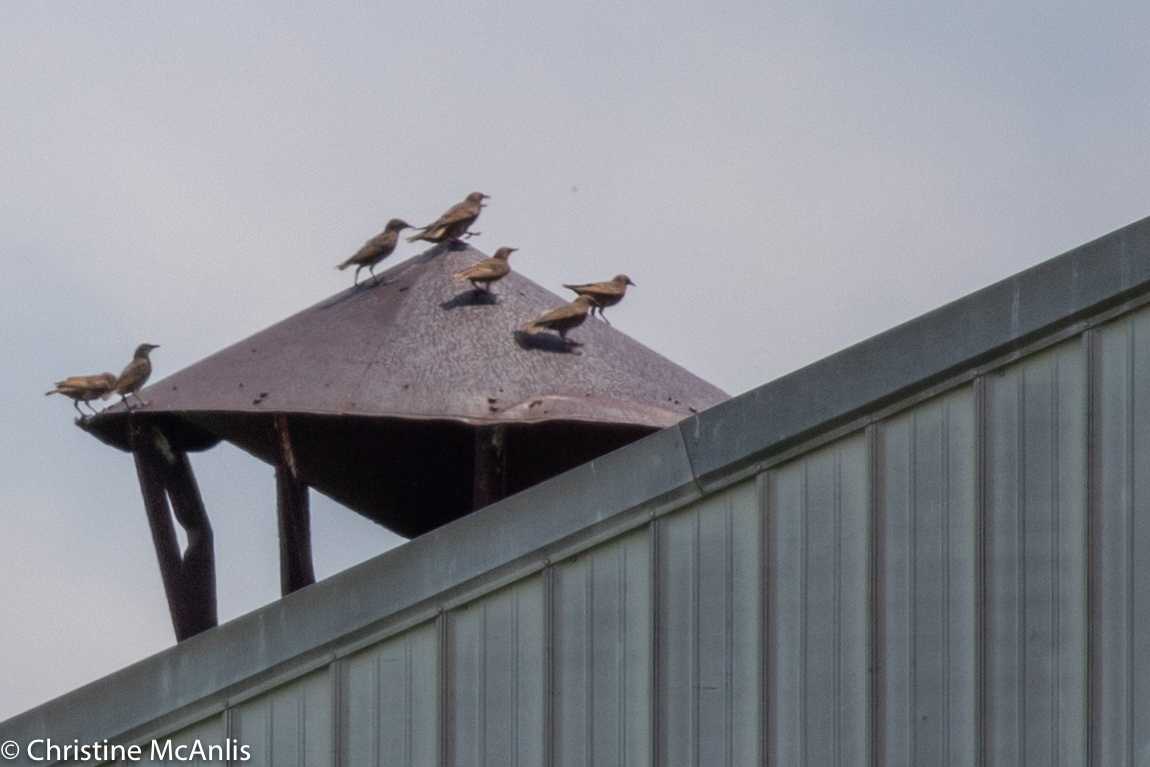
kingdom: Animalia
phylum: Chordata
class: Aves
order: Passeriformes
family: Sturnidae
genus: Sturnus
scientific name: Sturnus vulgaris
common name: Common starling
